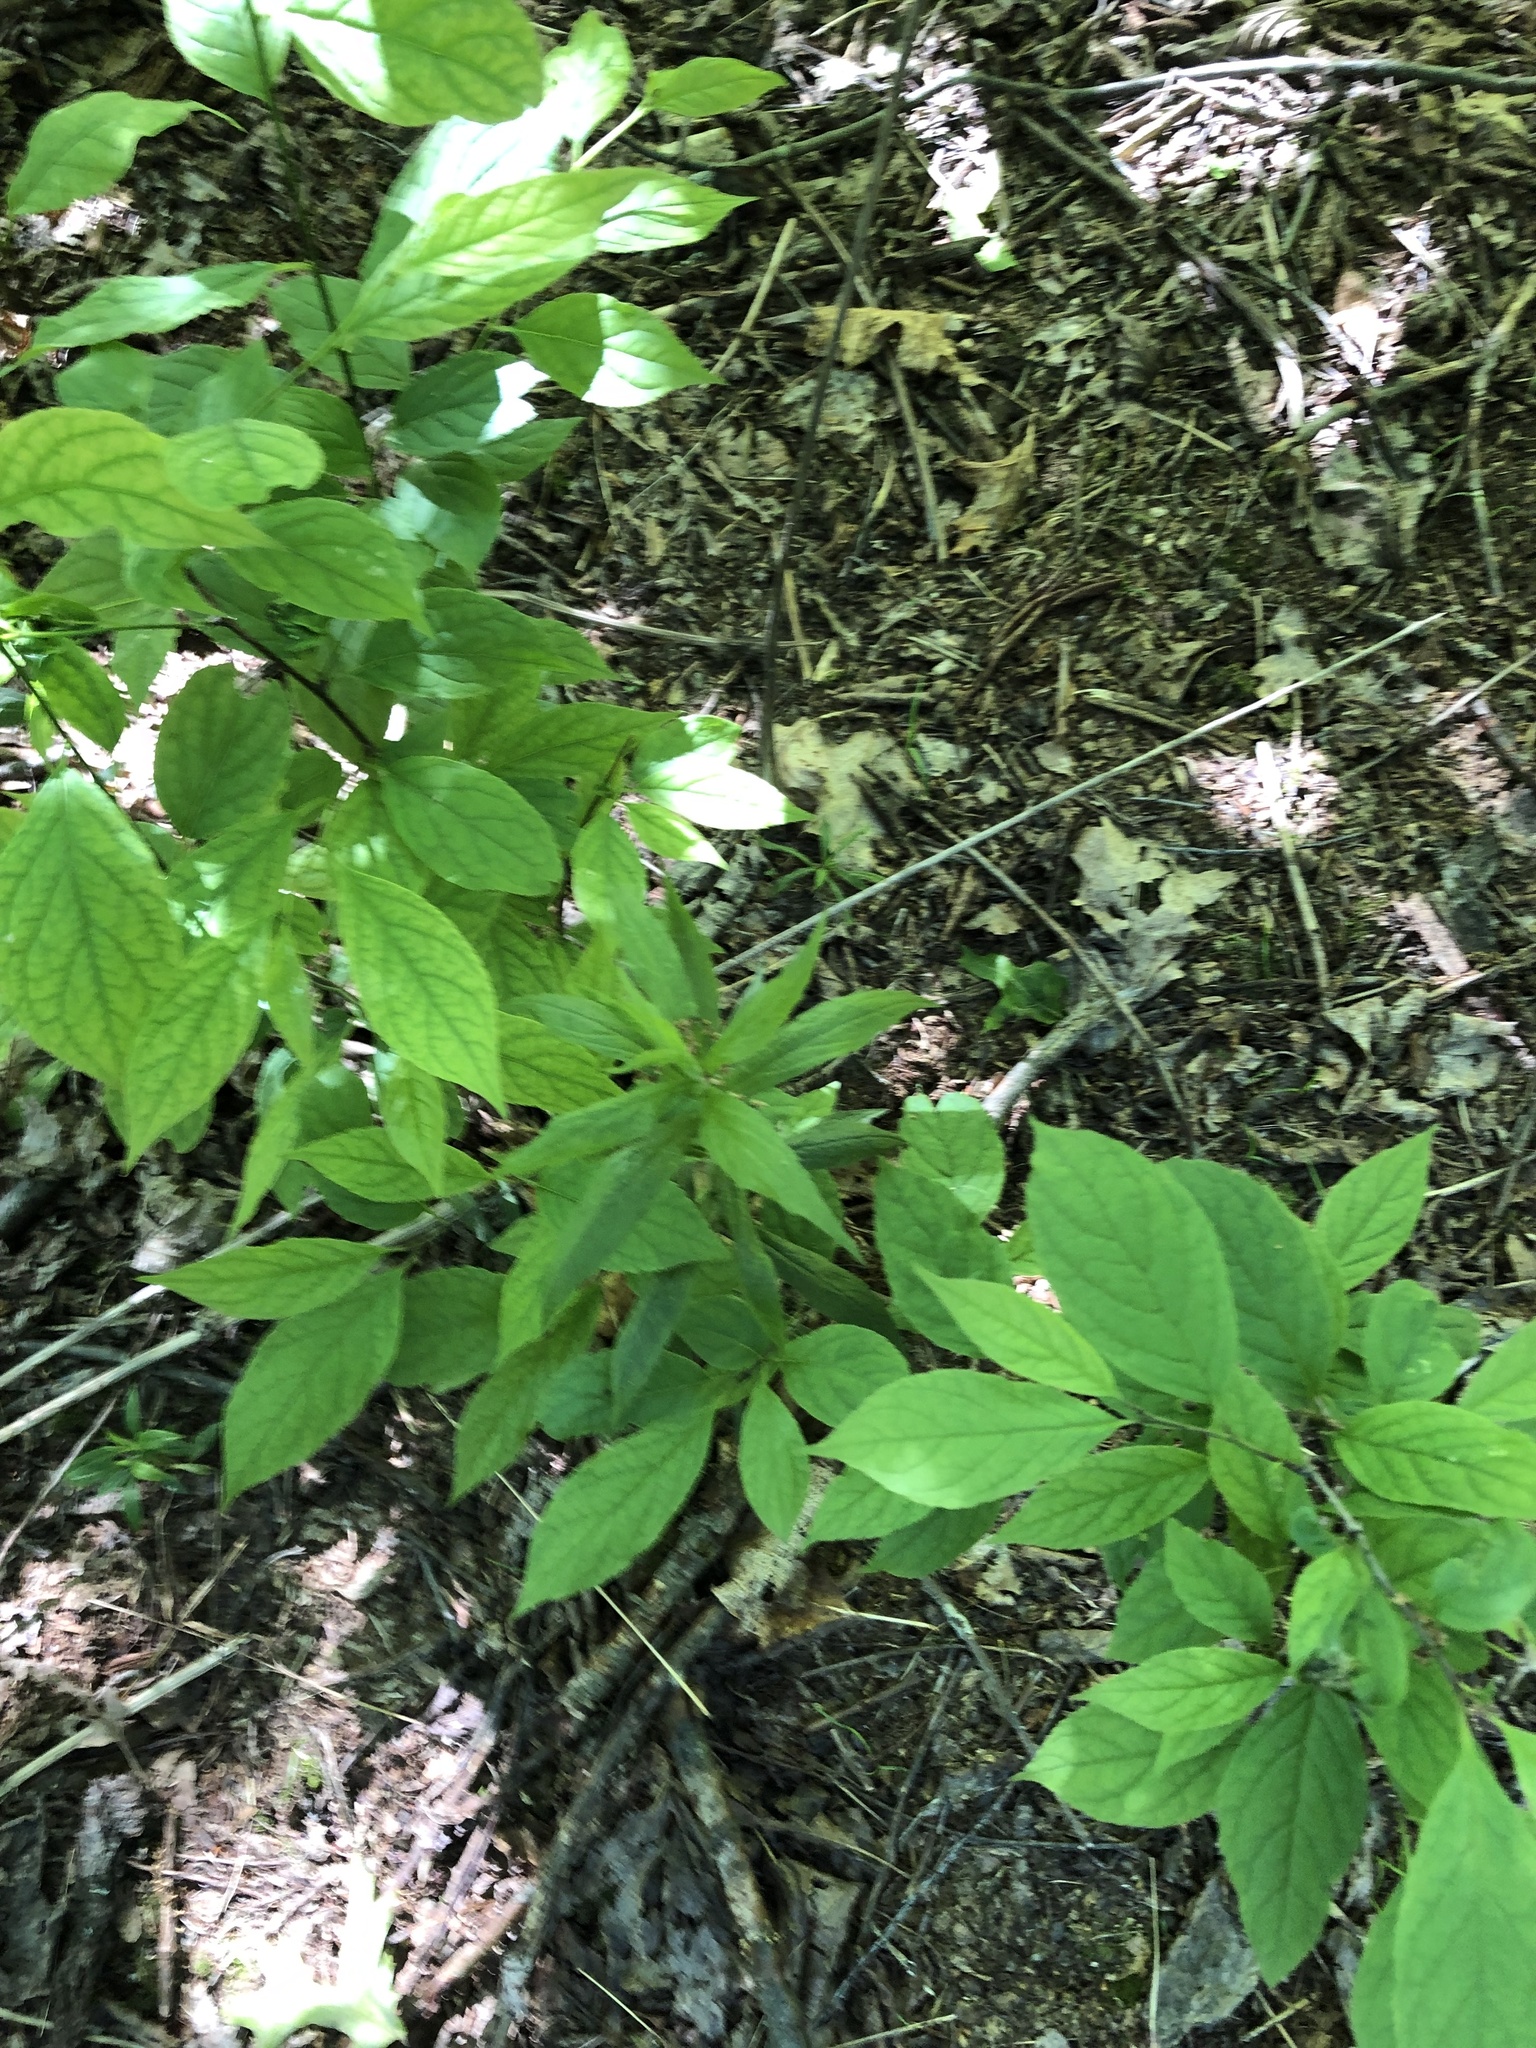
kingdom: Plantae
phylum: Tracheophyta
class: Magnoliopsida
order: Santalales
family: Cervantesiaceae
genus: Pyrularia
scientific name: Pyrularia pubera
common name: Oilnut
